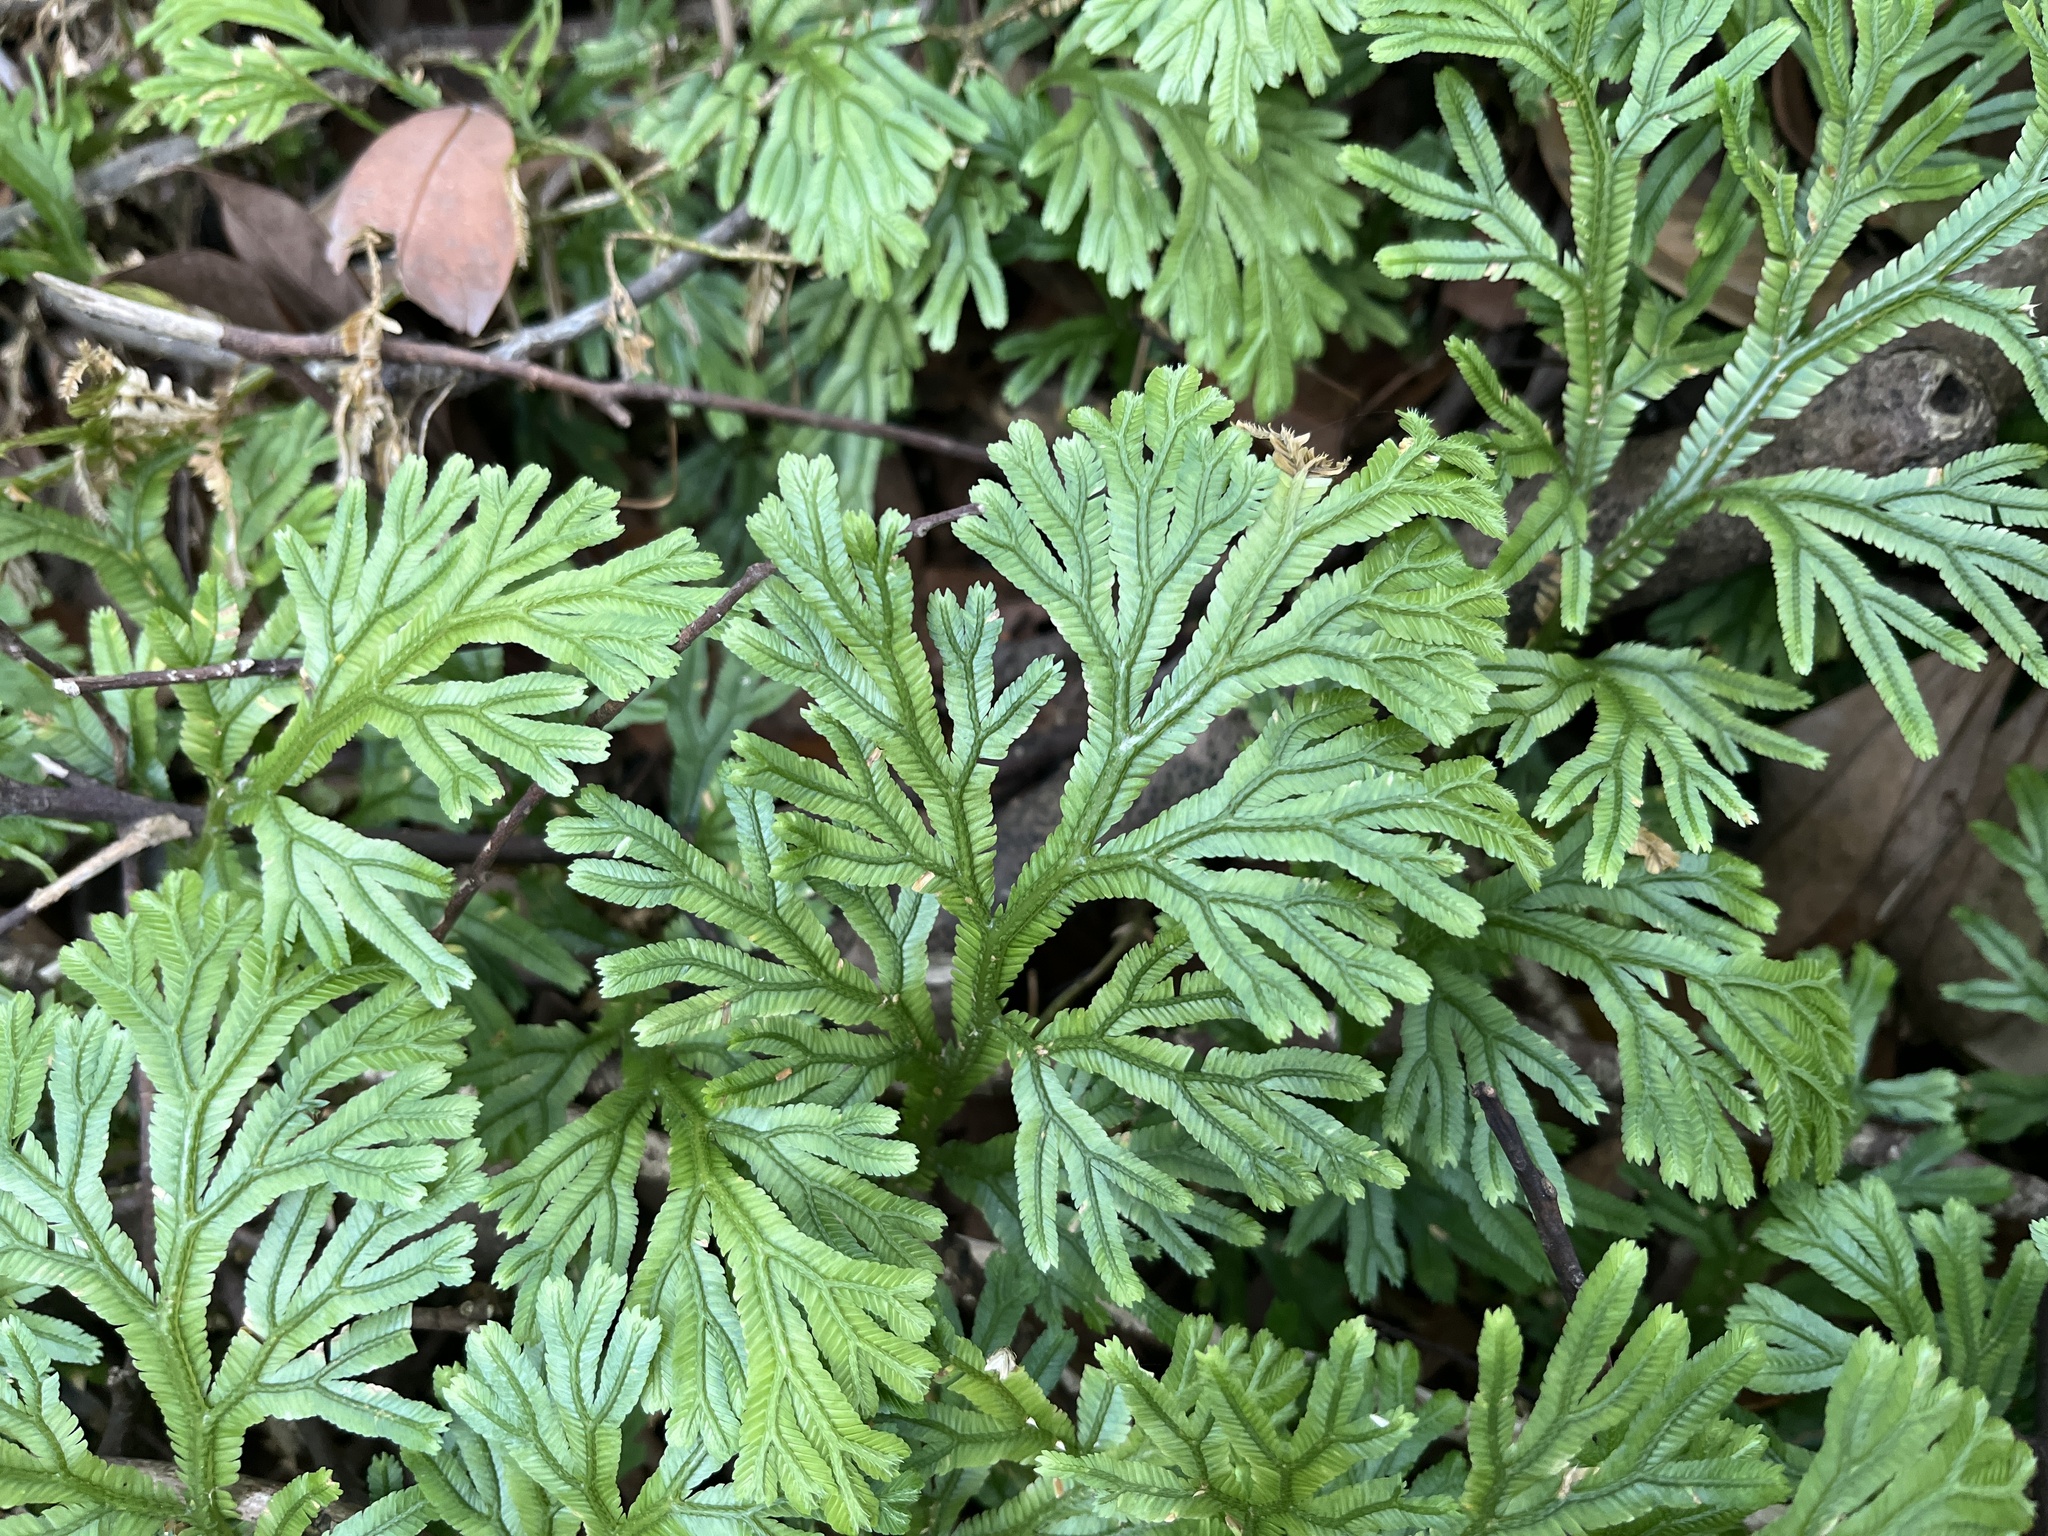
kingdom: Plantae
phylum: Tracheophyta
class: Lycopodiopsida
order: Selaginellales
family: Selaginellaceae
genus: Selaginella
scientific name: Selaginella doederleinii
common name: Greater selaginella
